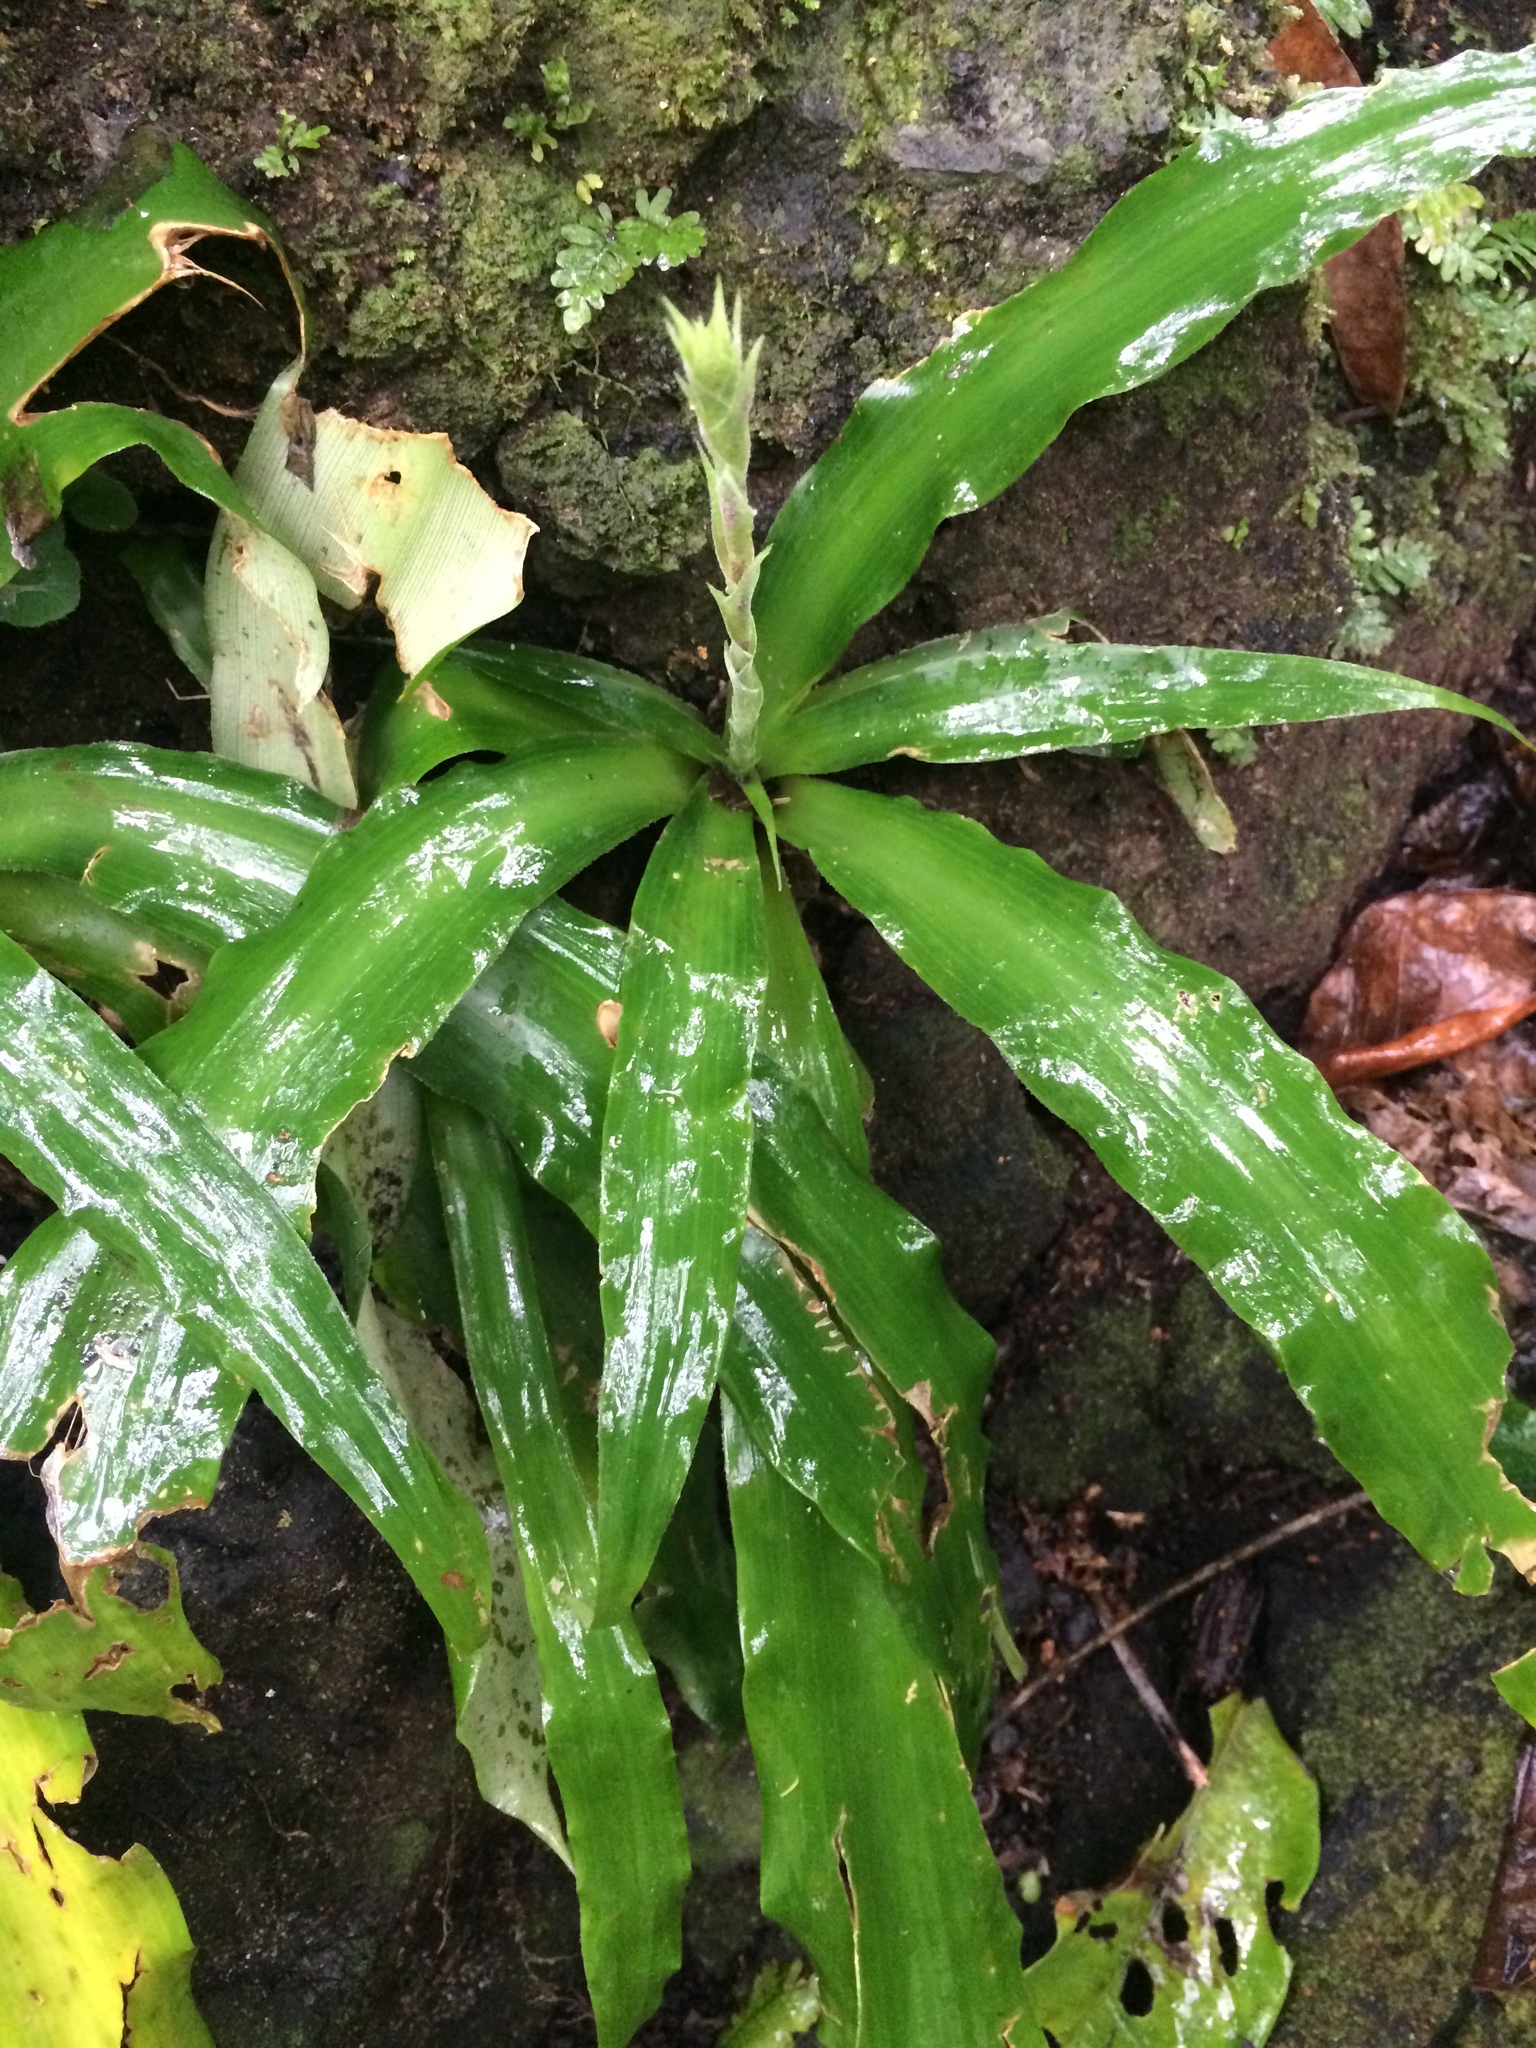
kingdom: Plantae
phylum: Tracheophyta
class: Liliopsida
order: Commelinales
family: Commelinaceae
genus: Callisia
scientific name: Callisia fragrans
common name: Basketplant
